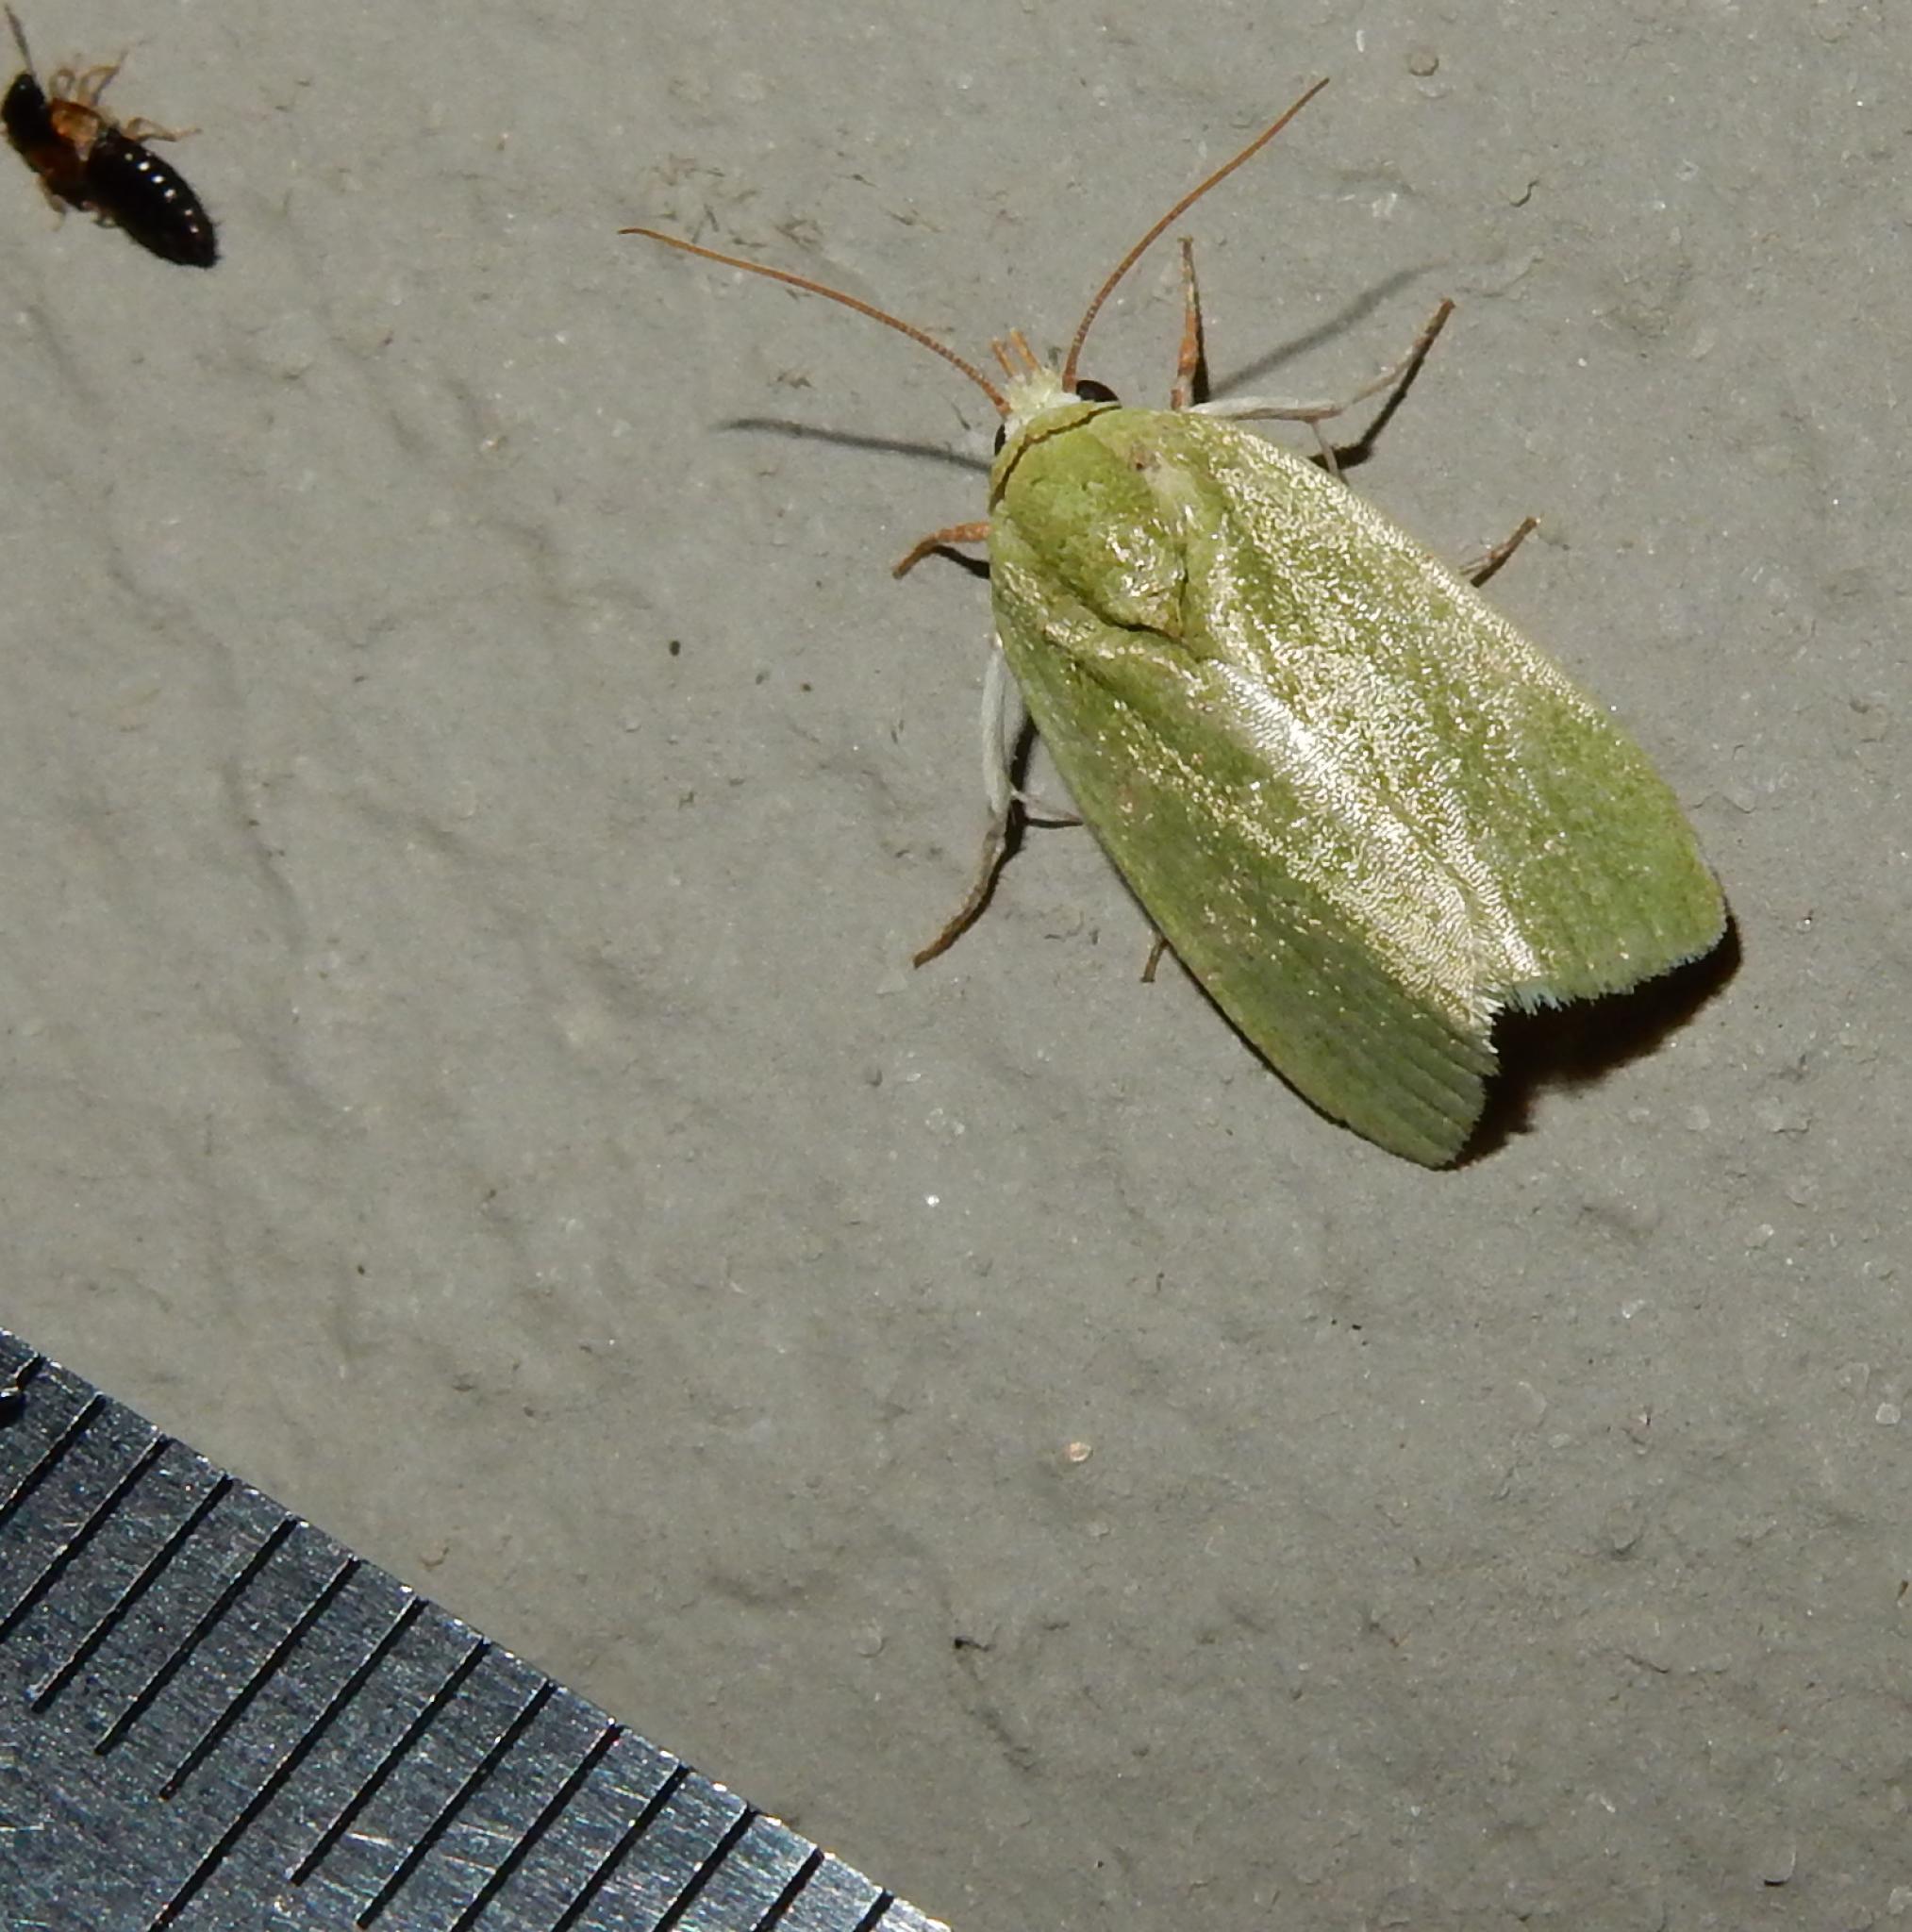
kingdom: Animalia
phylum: Arthropoda
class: Insecta
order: Lepidoptera
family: Nolidae
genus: Earias
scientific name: Earias insulana
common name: Egyptian bollworm
